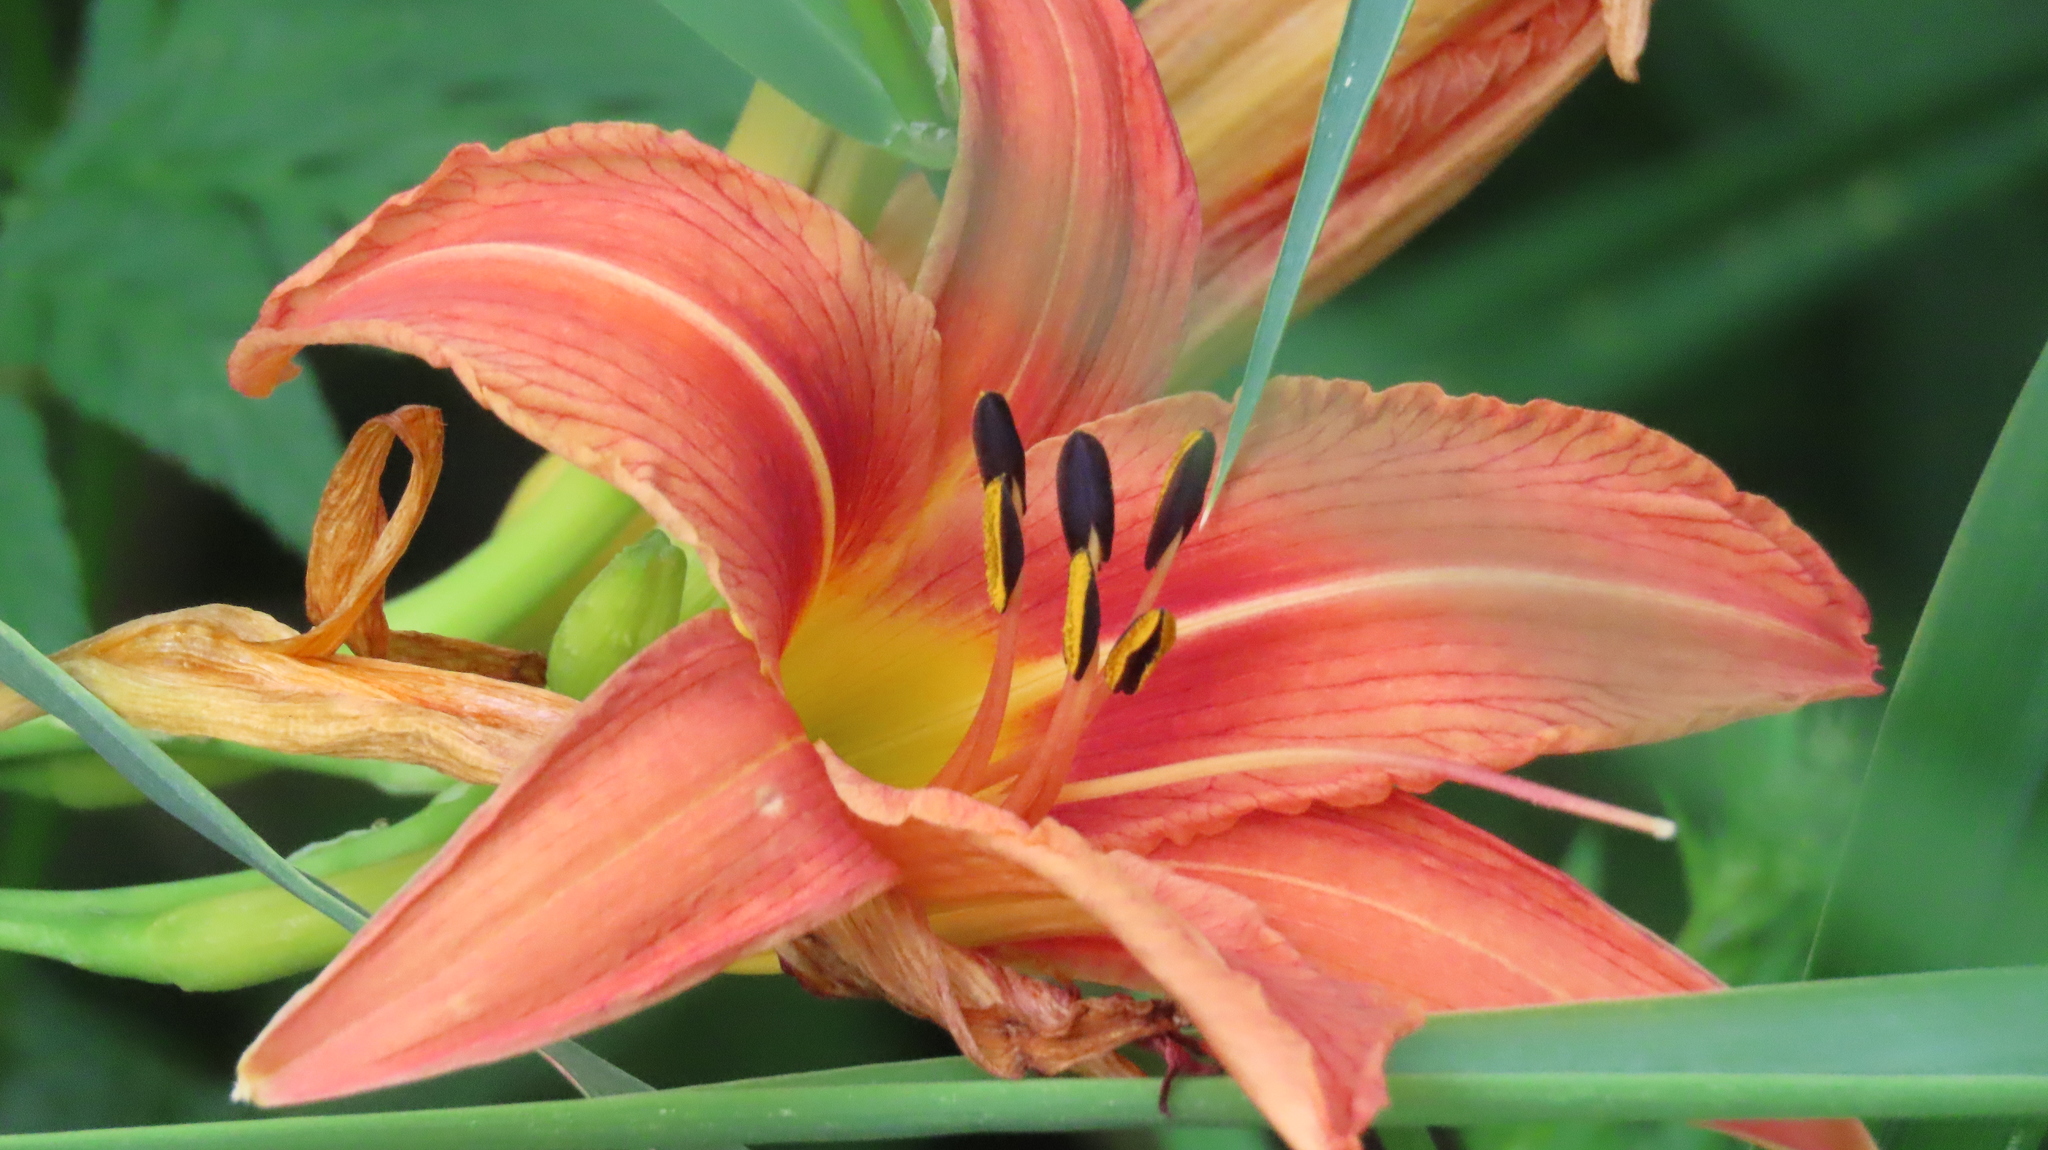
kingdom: Plantae
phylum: Tracheophyta
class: Liliopsida
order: Asparagales
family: Asphodelaceae
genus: Hemerocallis
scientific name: Hemerocallis fulva
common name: Orange day-lily
